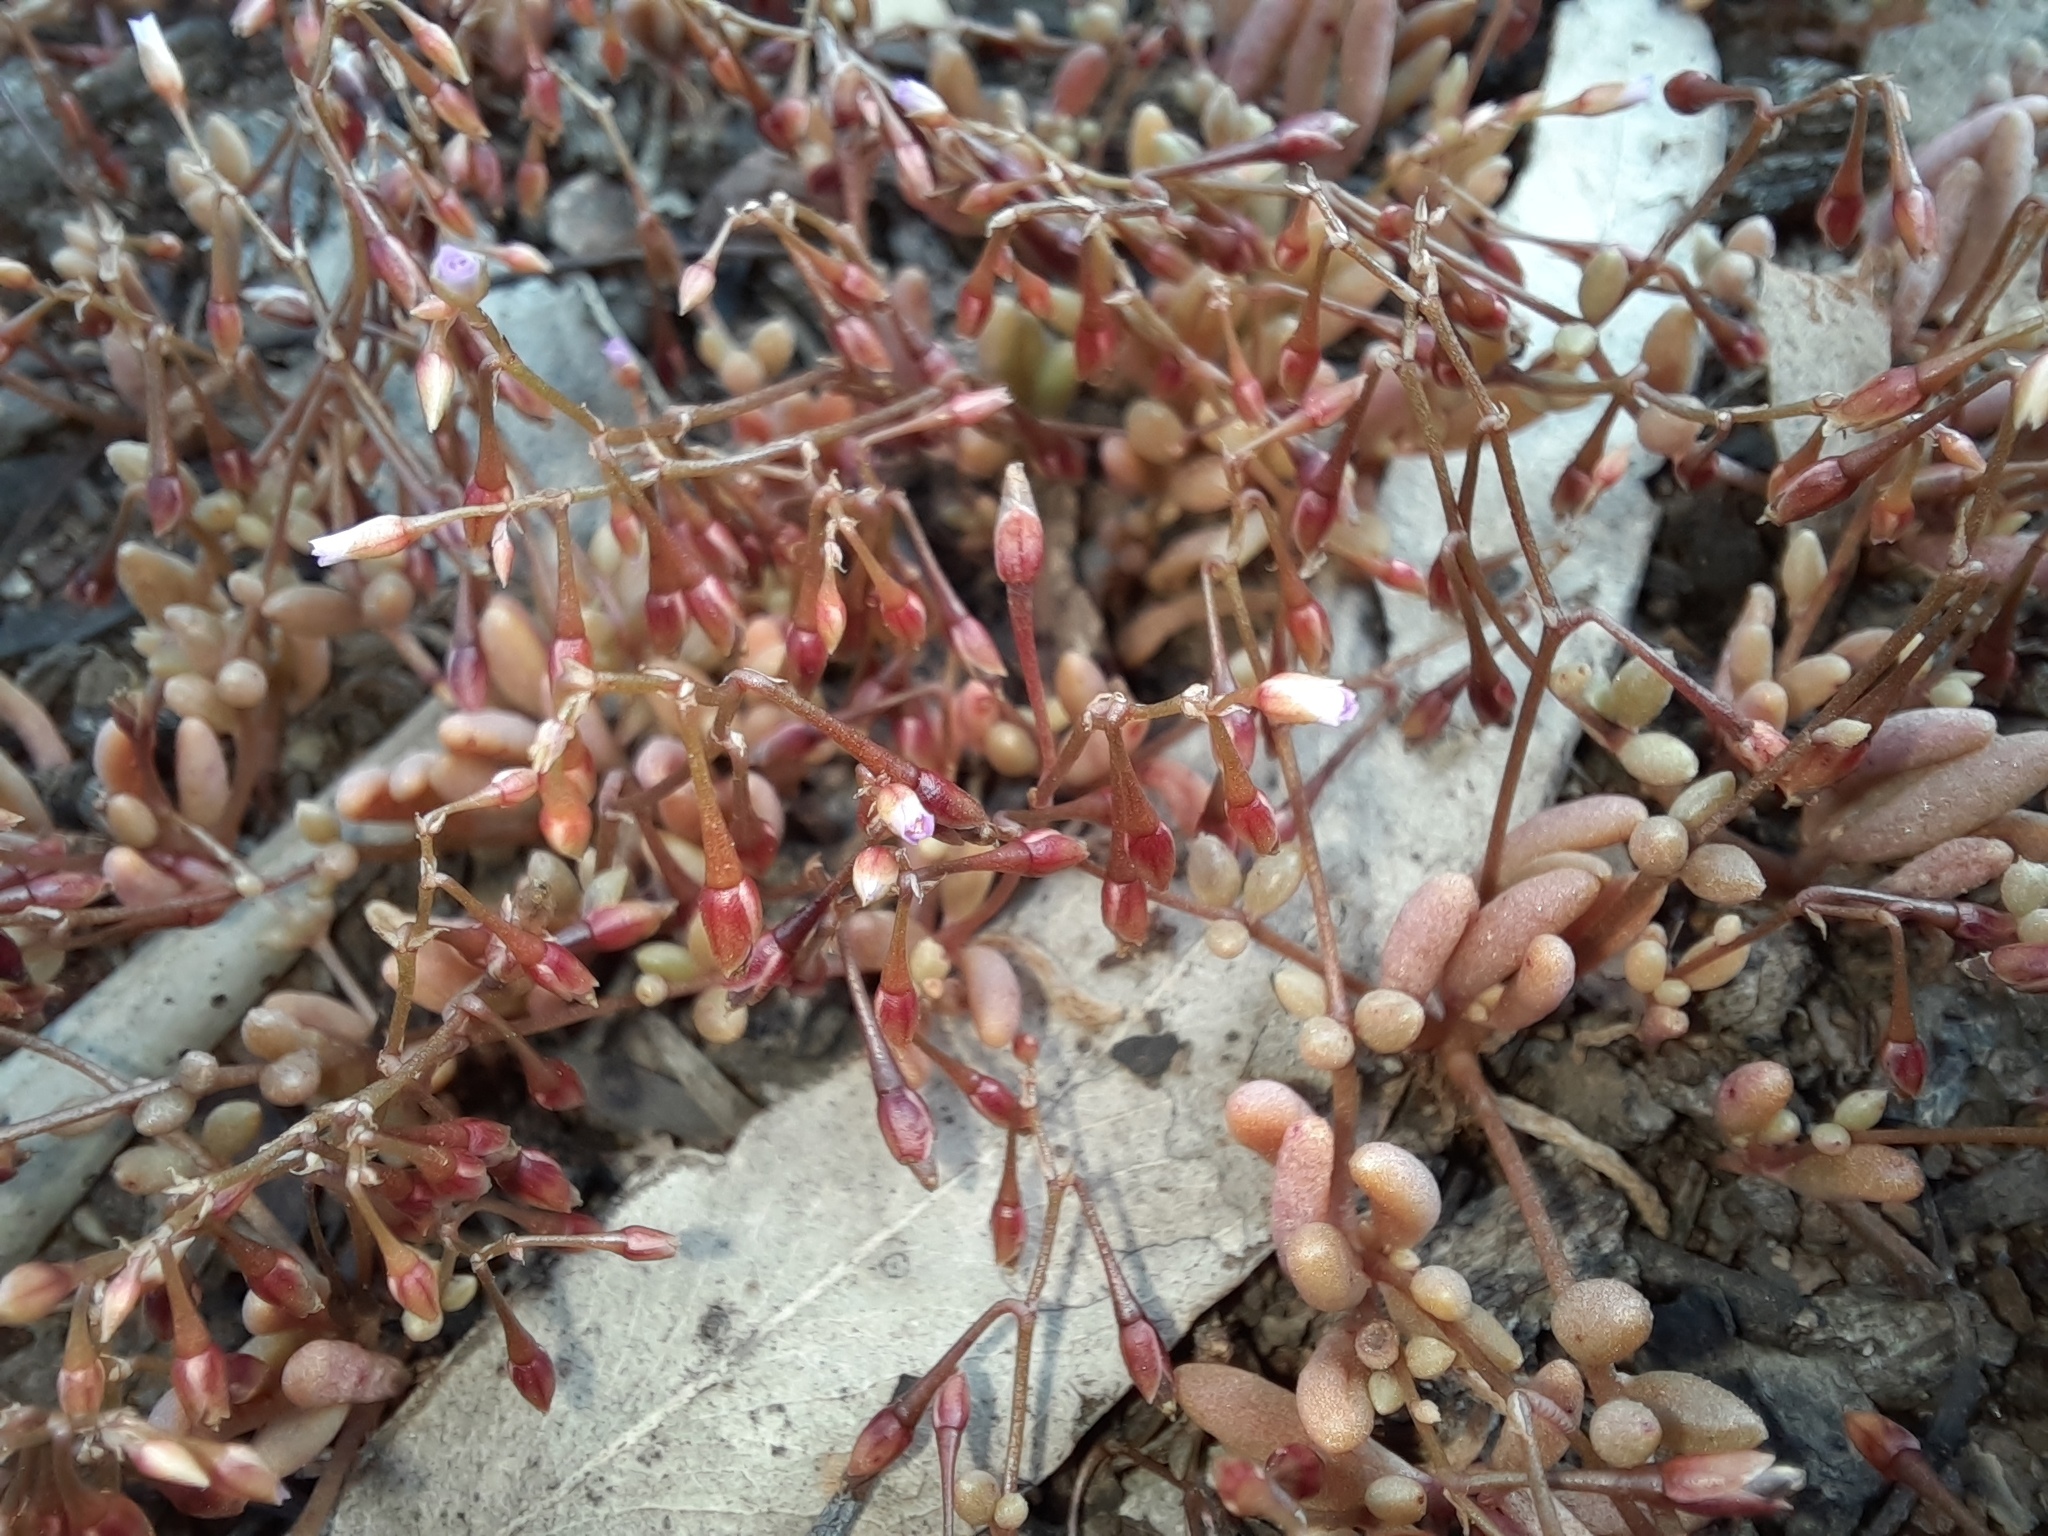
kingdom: Plantae
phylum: Tracheophyta
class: Magnoliopsida
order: Caryophyllales
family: Montiaceae
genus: Rumicastrum
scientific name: Rumicastrum calyptratum
